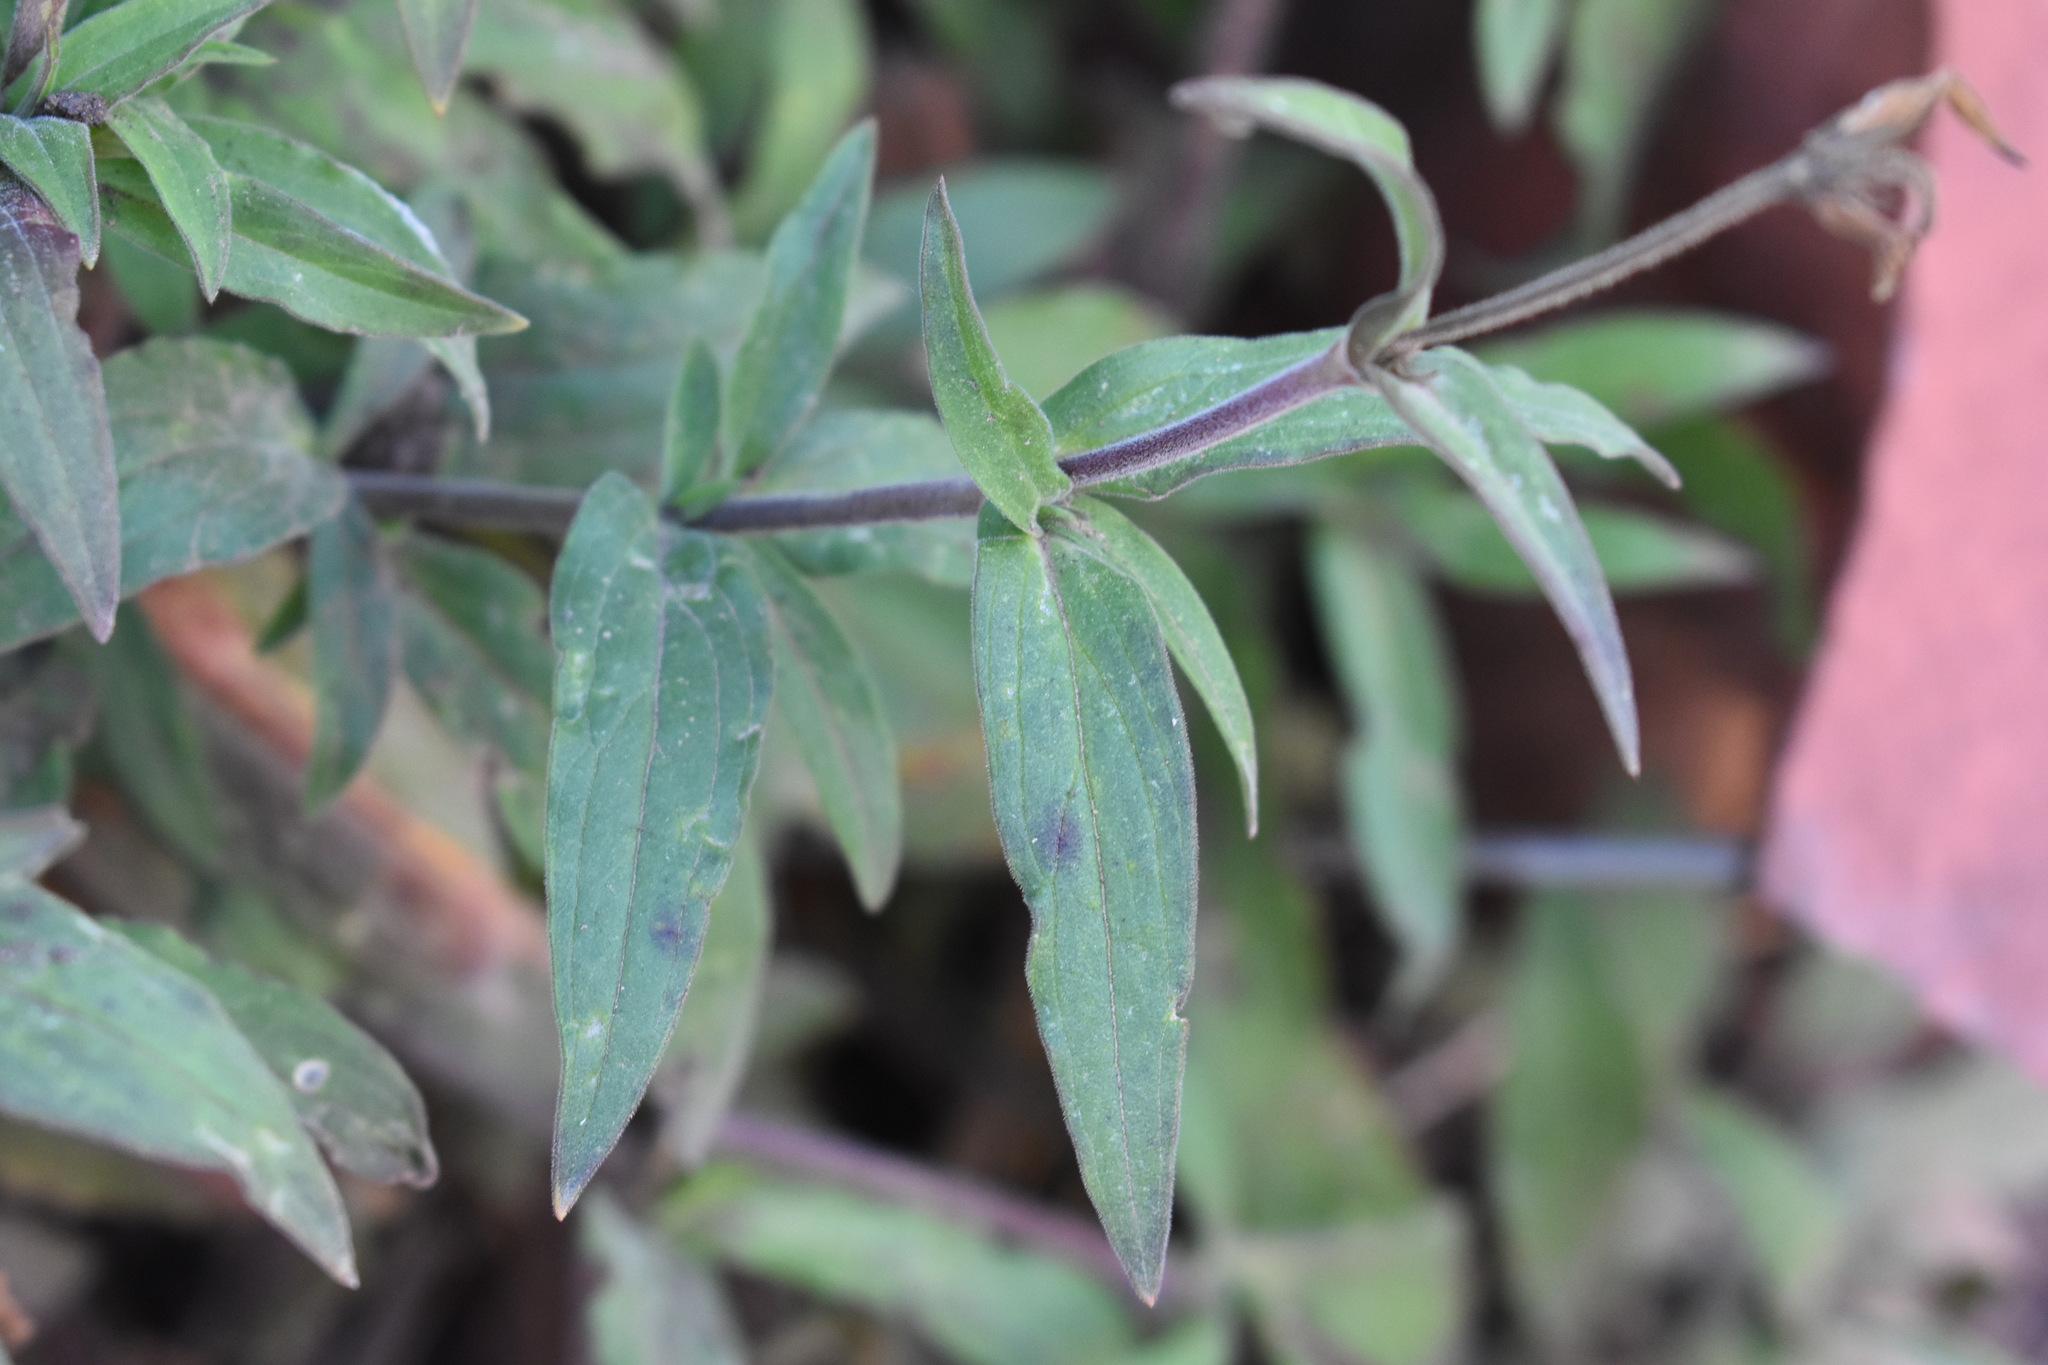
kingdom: Plantae
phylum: Tracheophyta
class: Magnoliopsida
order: Caryophyllales
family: Caryophyllaceae
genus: Silene
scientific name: Silene latifolia
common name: White campion
